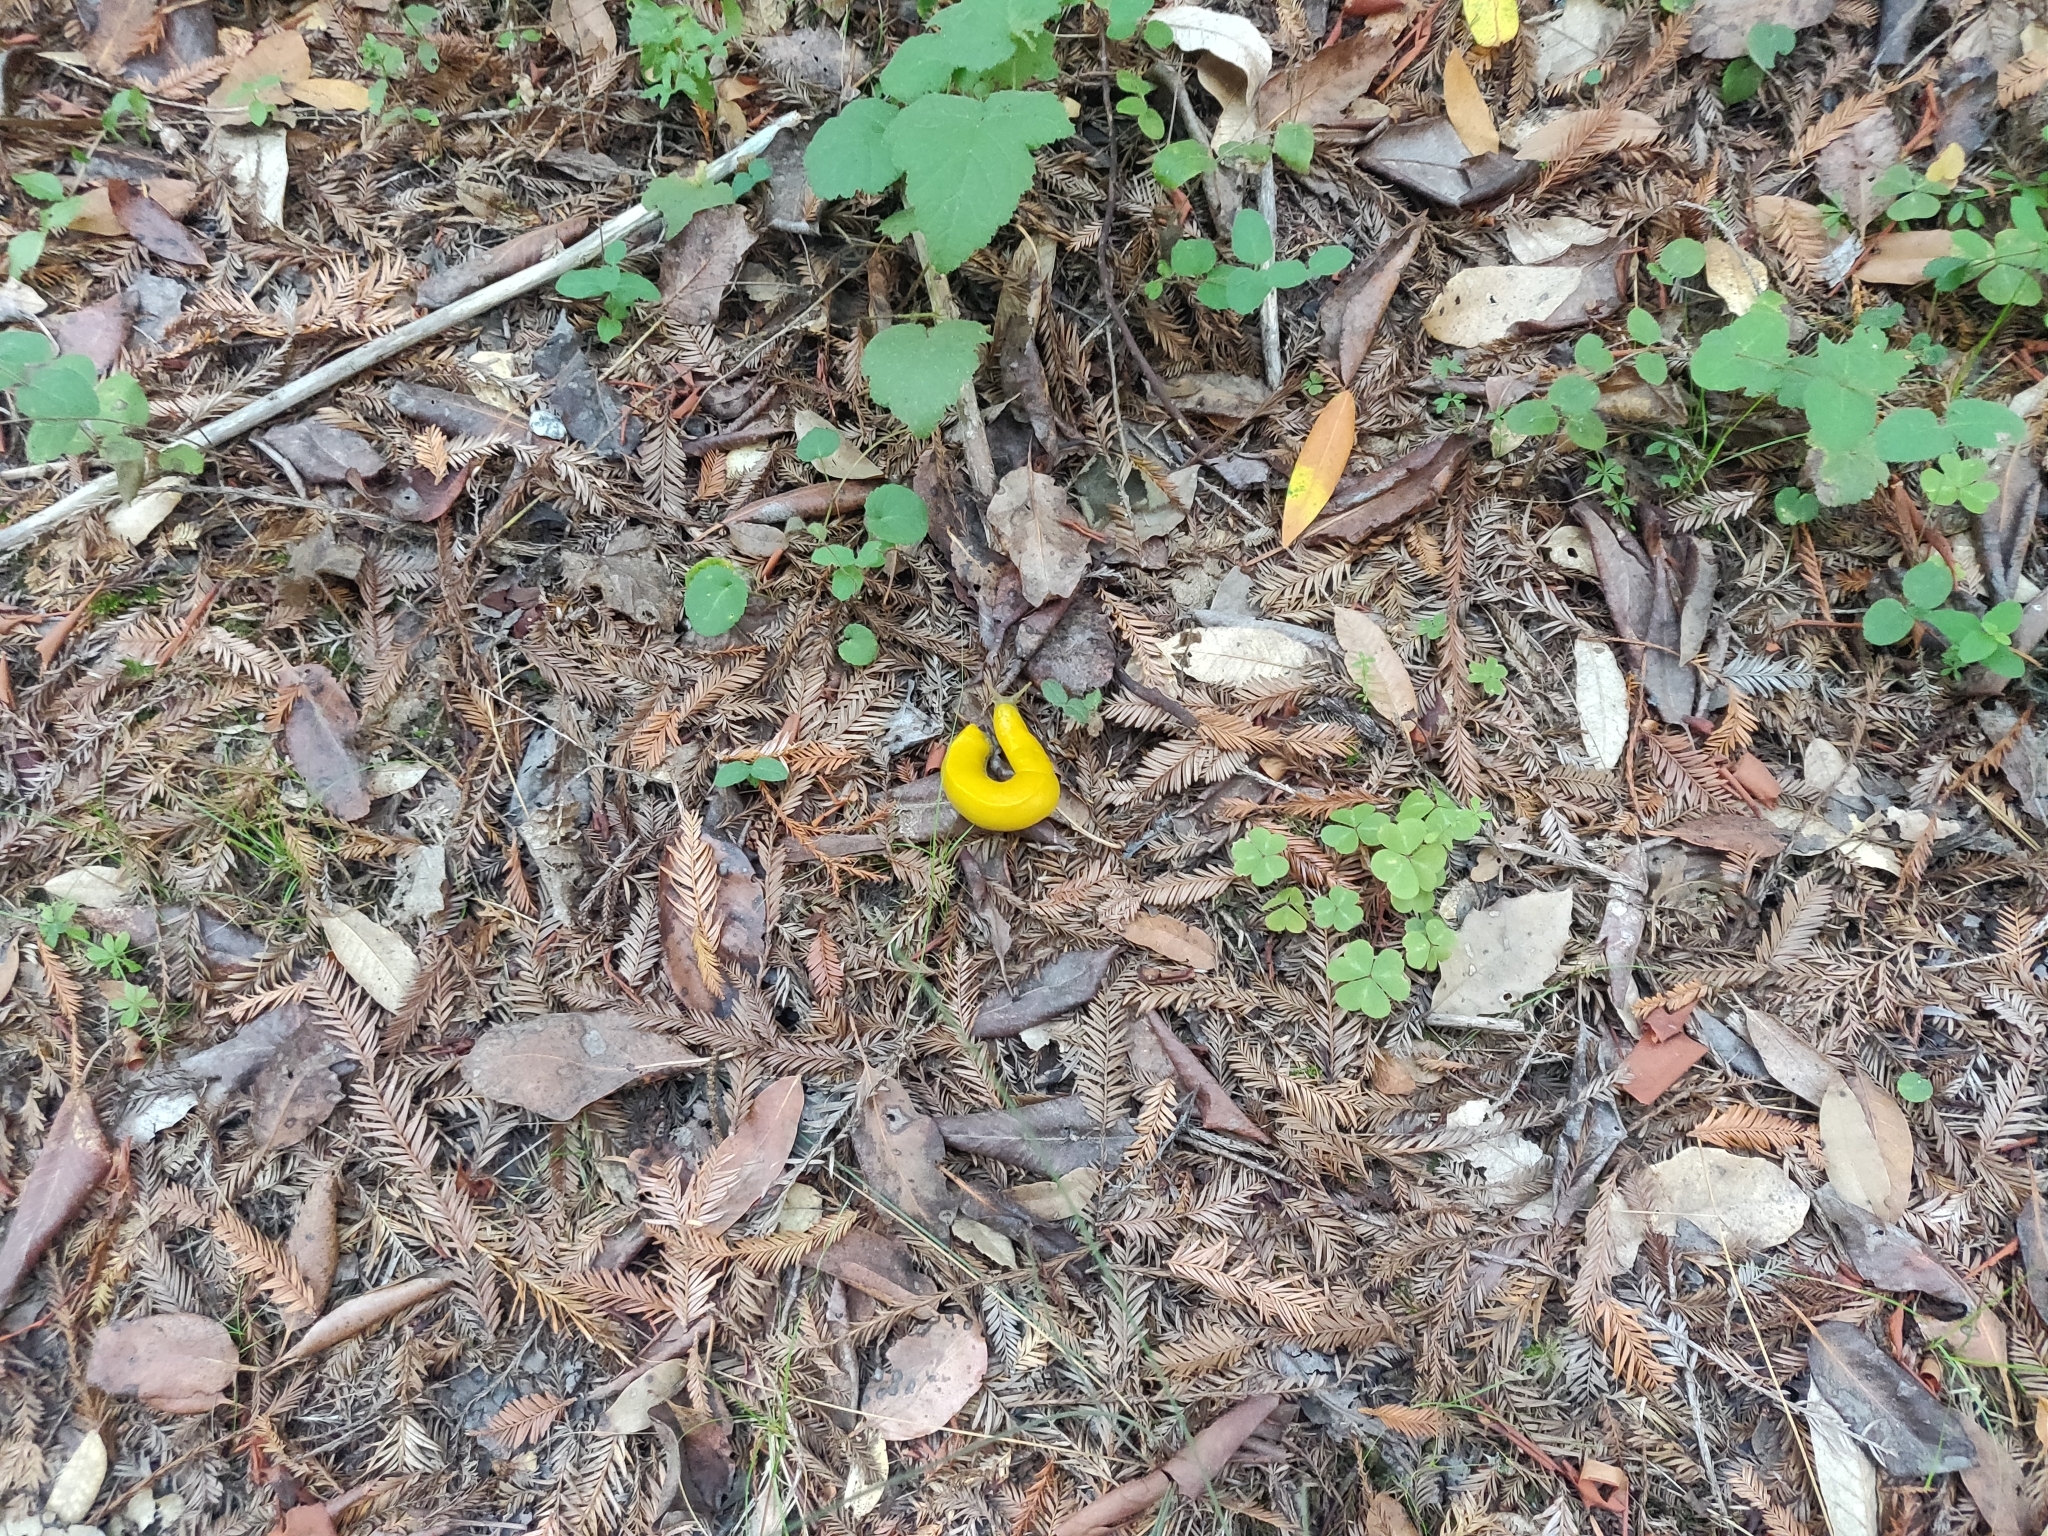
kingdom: Animalia
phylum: Mollusca
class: Gastropoda
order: Stylommatophora
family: Ariolimacidae
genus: Ariolimax
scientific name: Ariolimax californicus
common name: California banana slug
